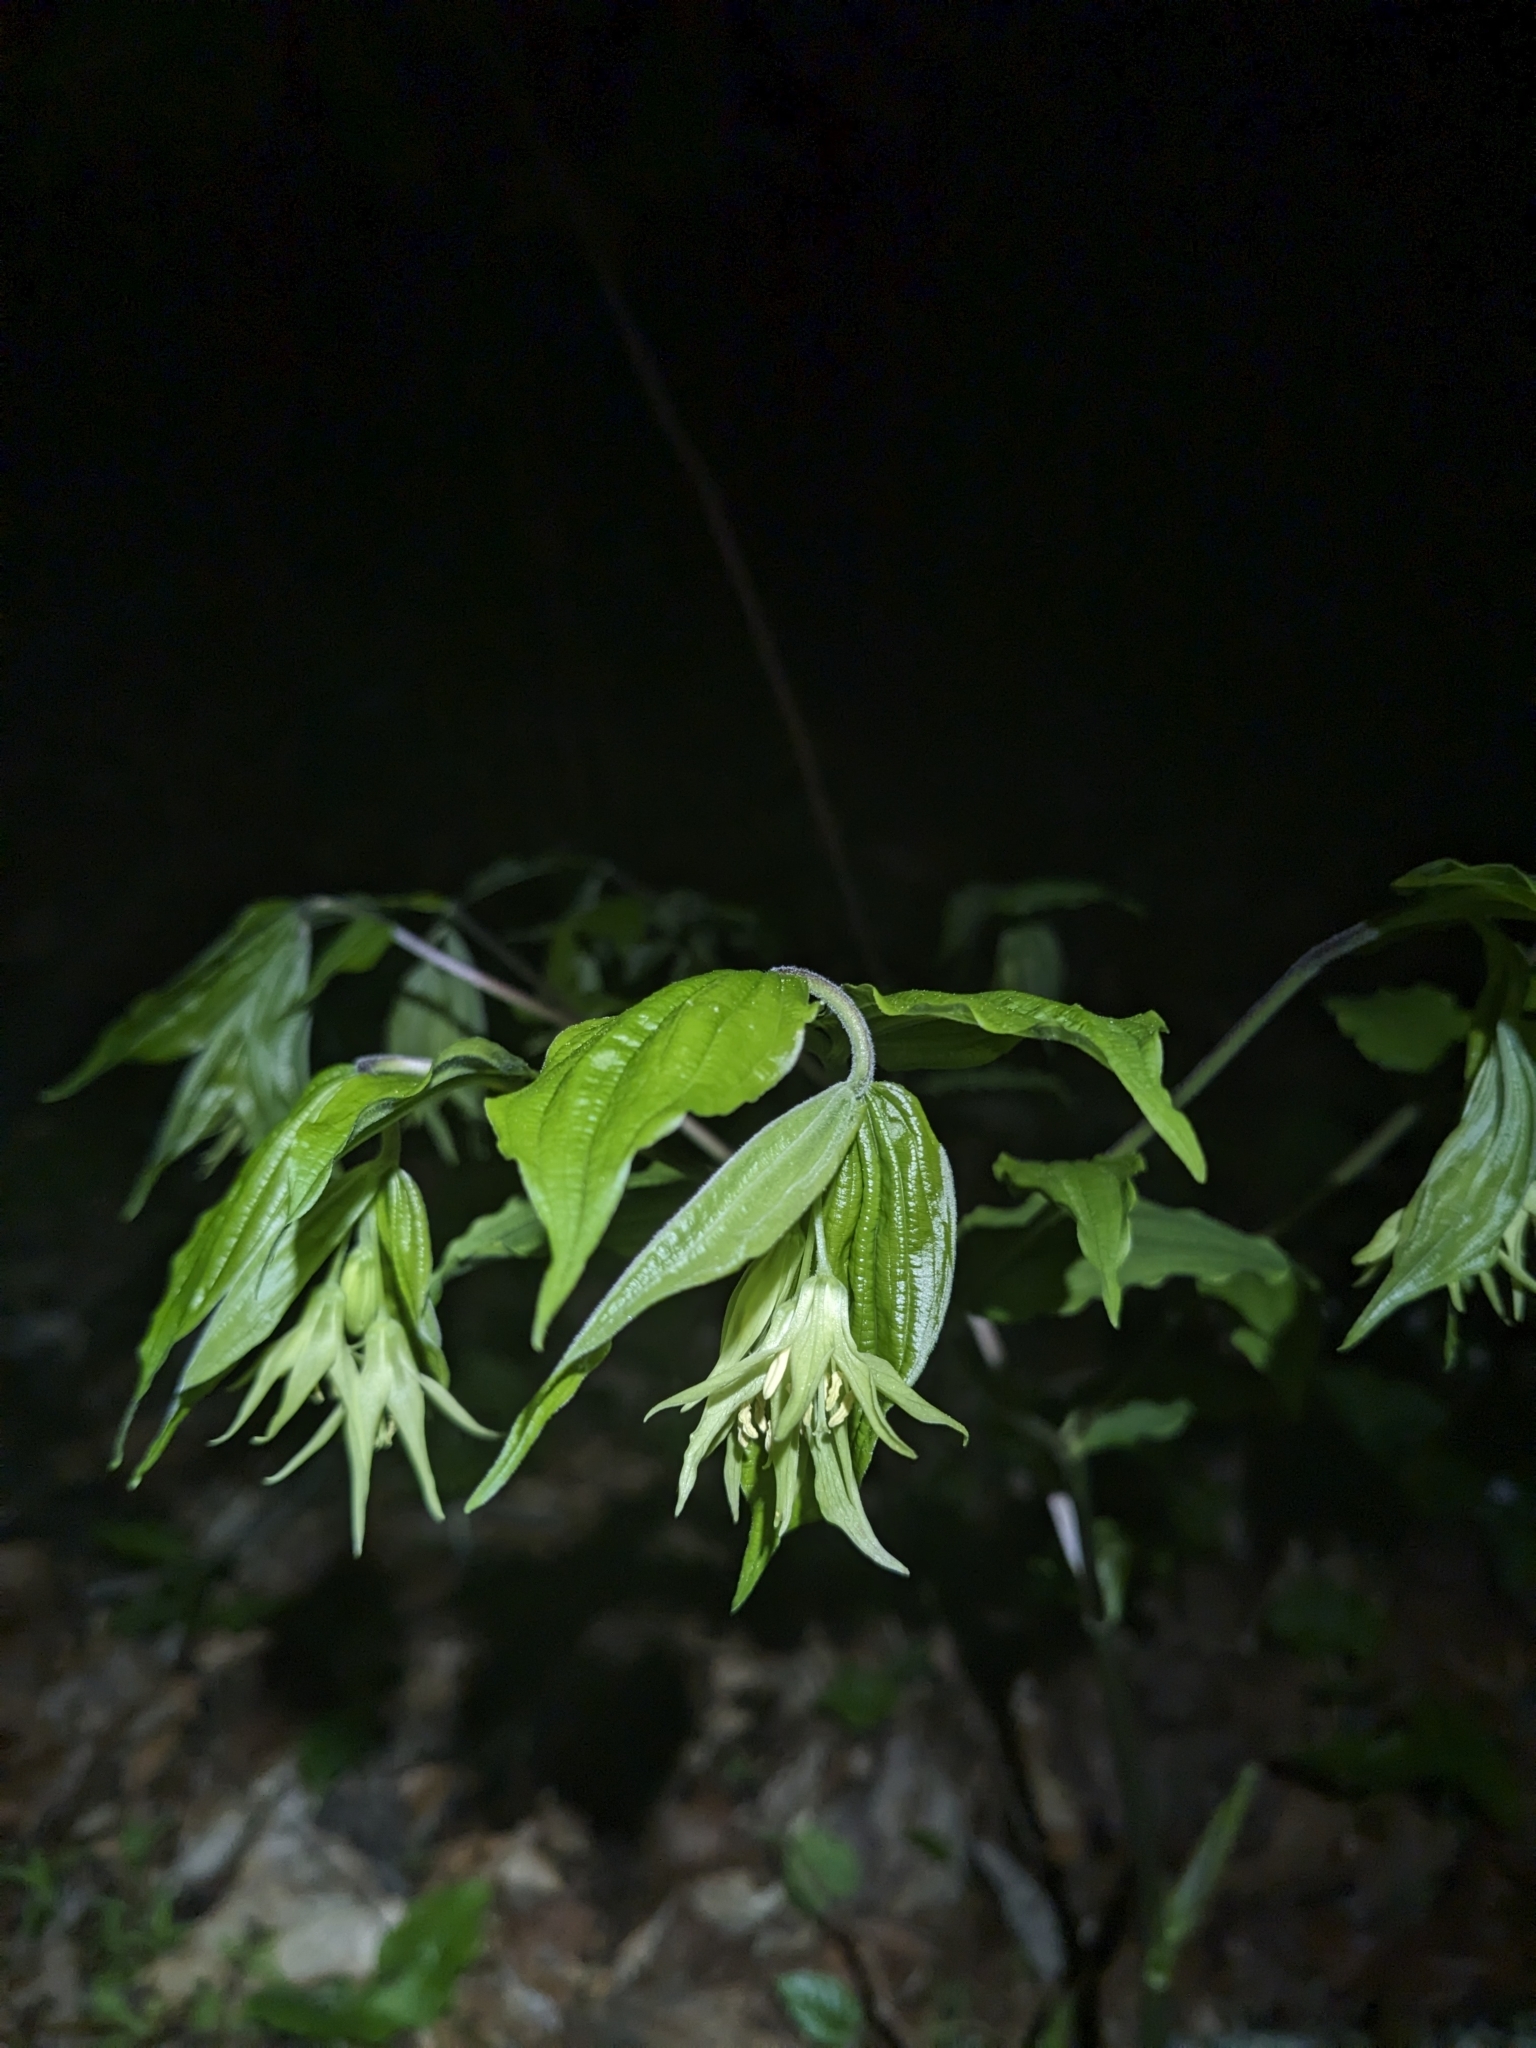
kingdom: Plantae
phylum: Tracheophyta
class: Liliopsida
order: Liliales
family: Liliaceae
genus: Prosartes
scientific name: Prosartes lanuginosa
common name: Hairy mandarin
